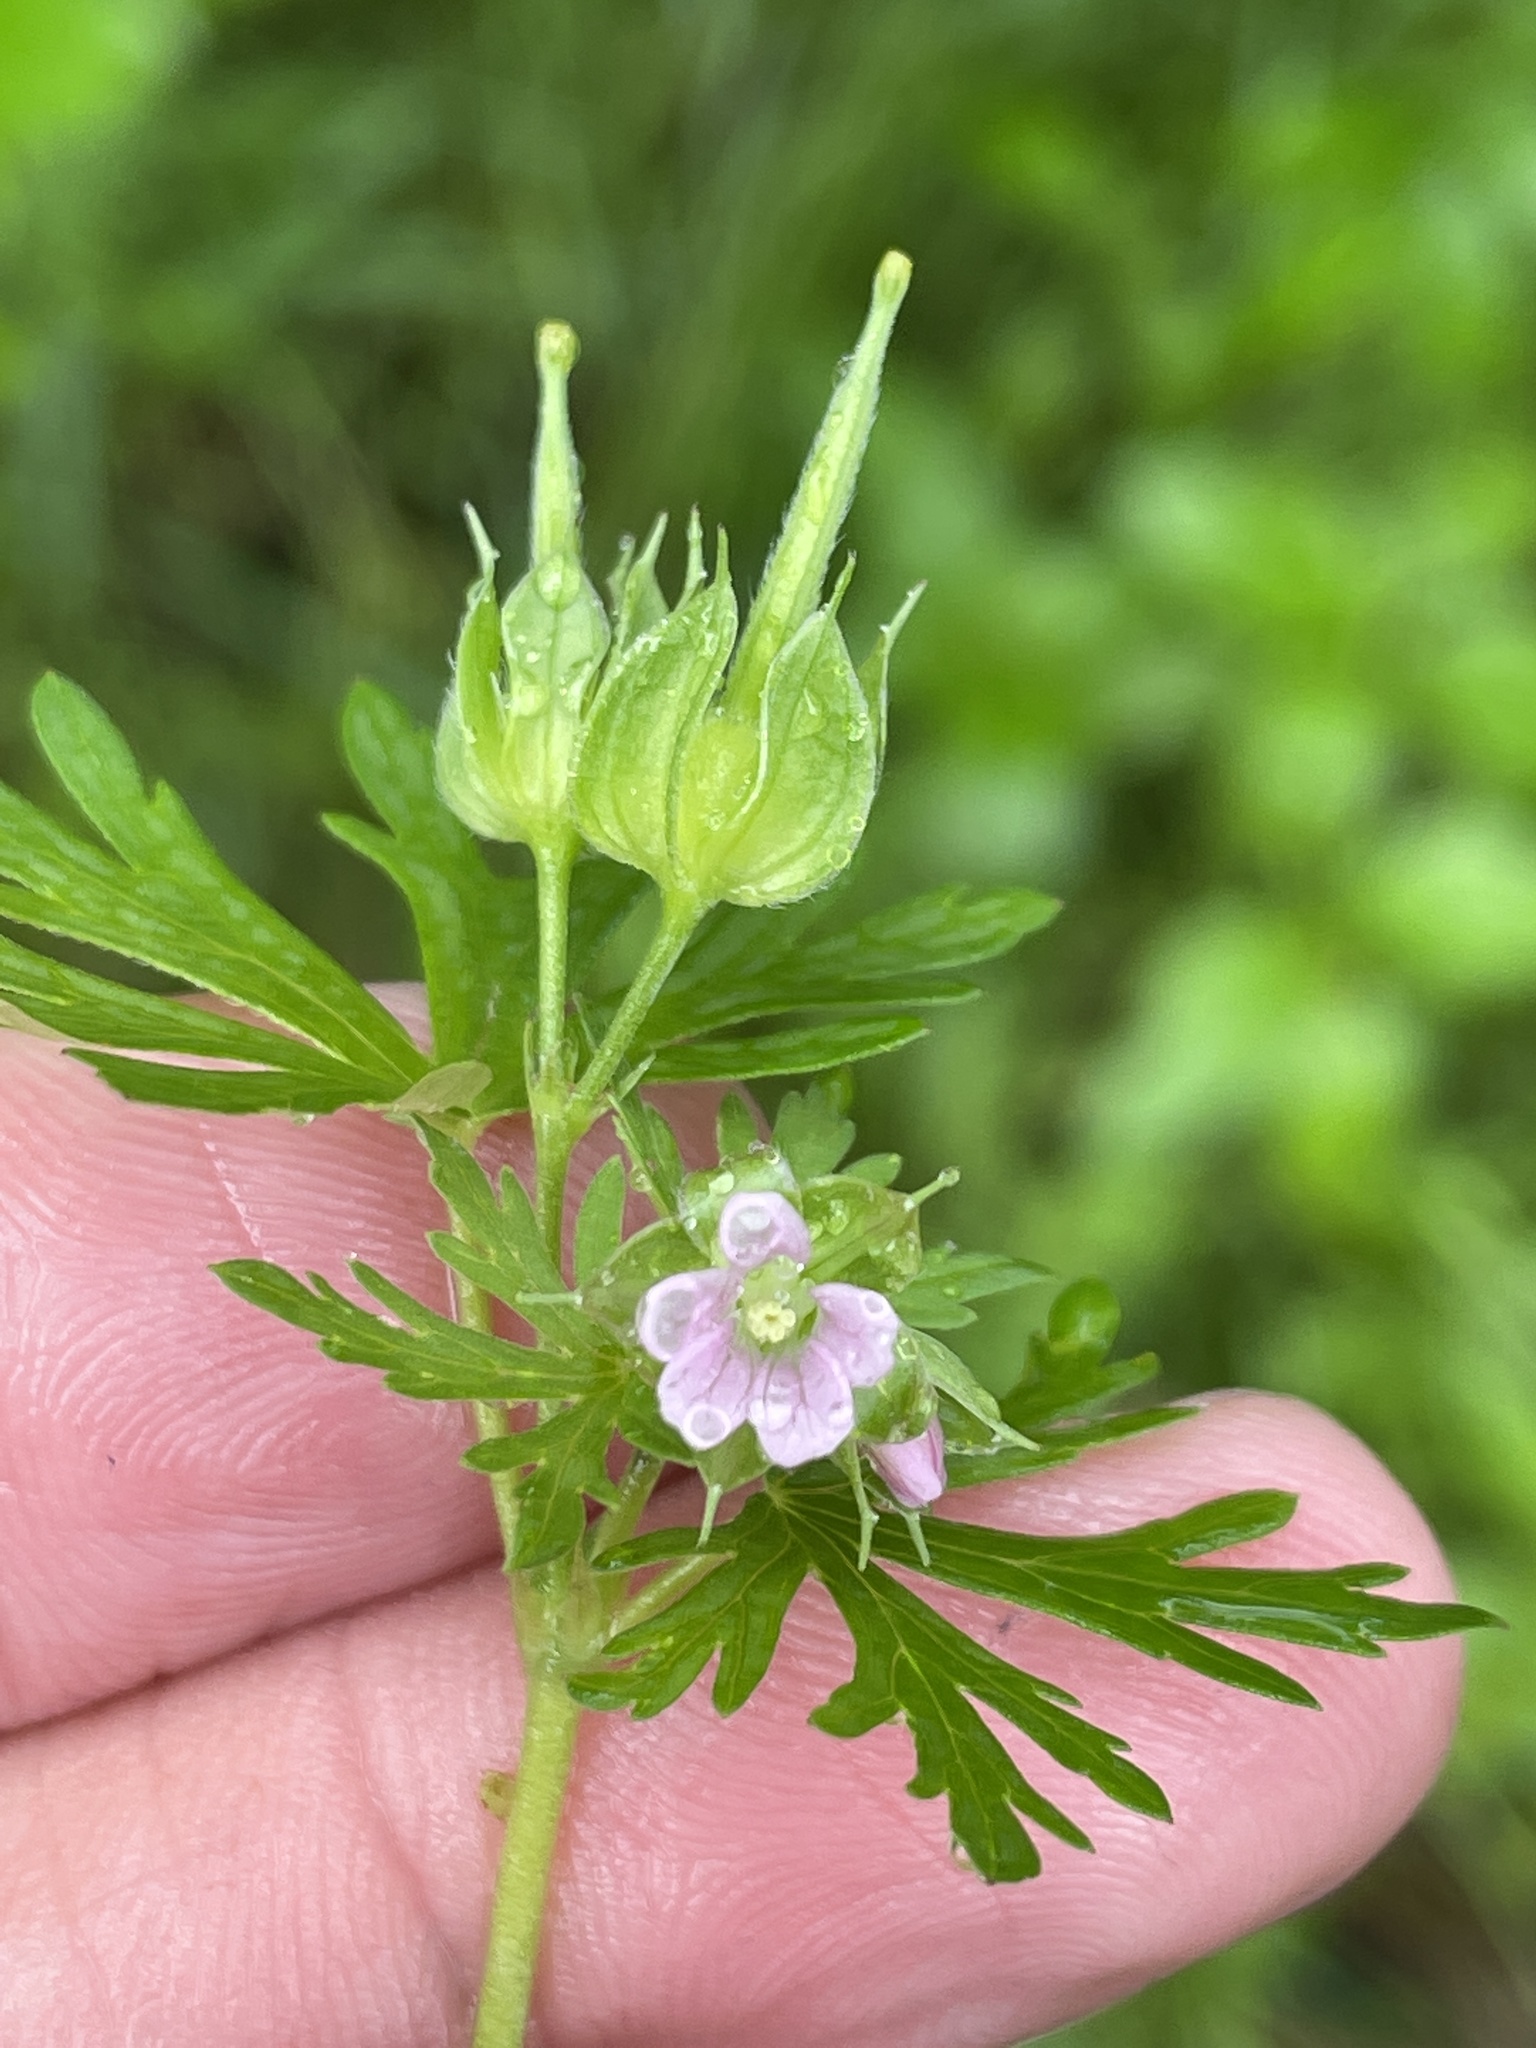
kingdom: Plantae
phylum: Tracheophyta
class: Magnoliopsida
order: Geraniales
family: Geraniaceae
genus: Geranium
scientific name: Geranium carolinianum
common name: Carolina crane's-bill
